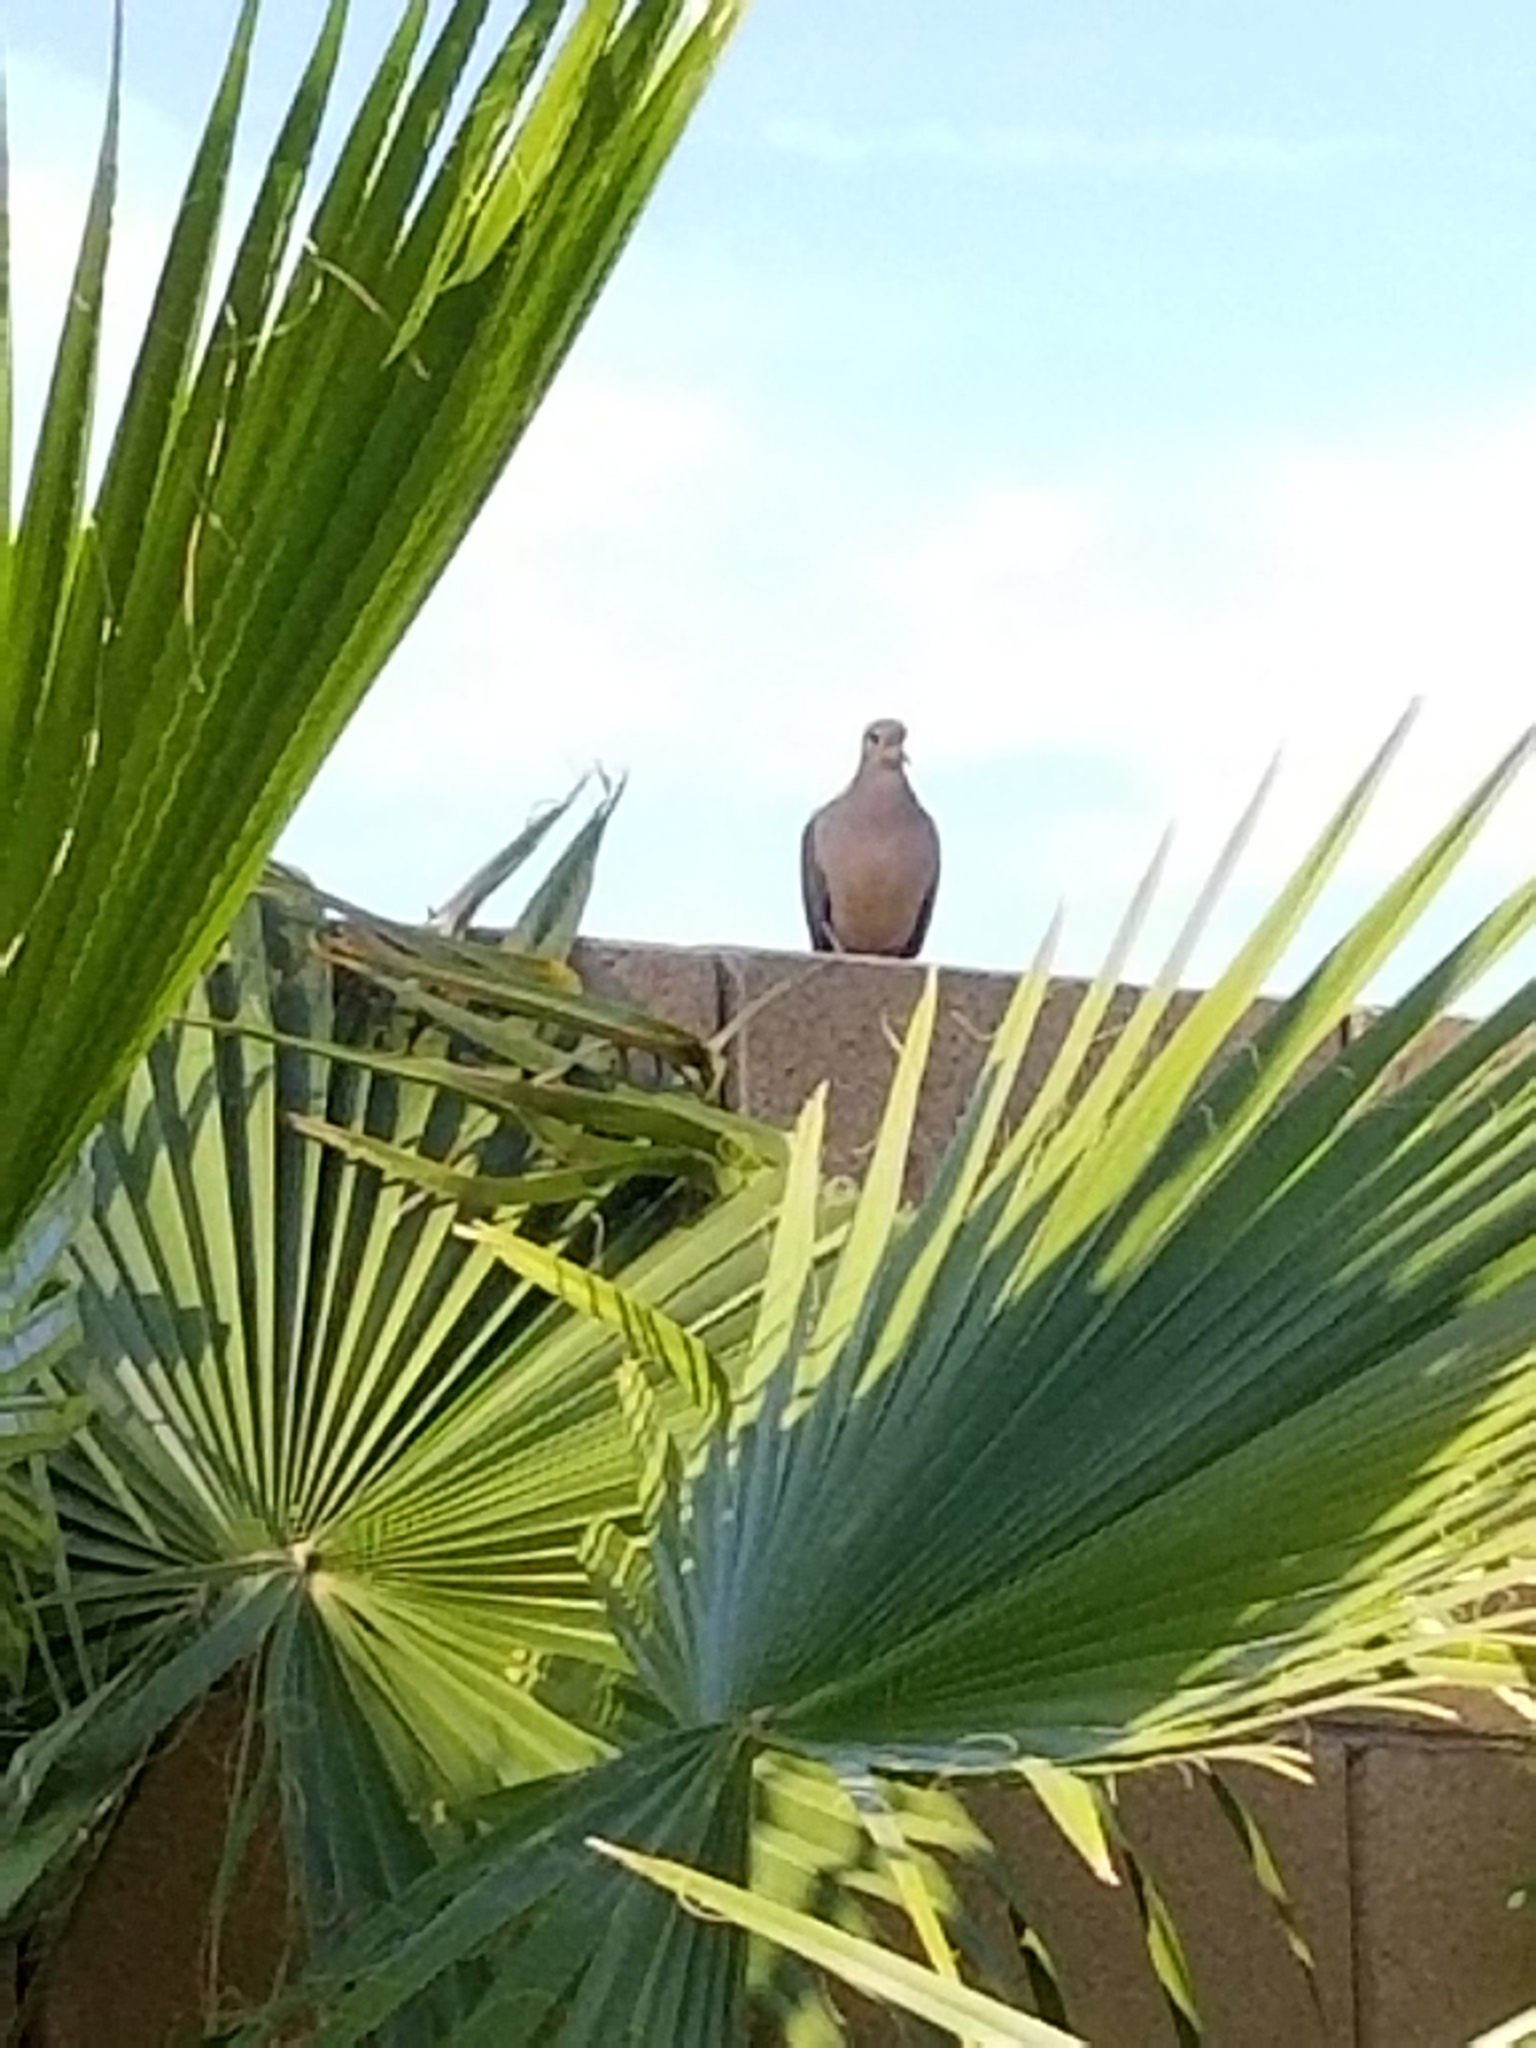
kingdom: Animalia
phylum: Chordata
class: Aves
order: Columbiformes
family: Columbidae
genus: Zenaida
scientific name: Zenaida macroura
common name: Mourning dove
